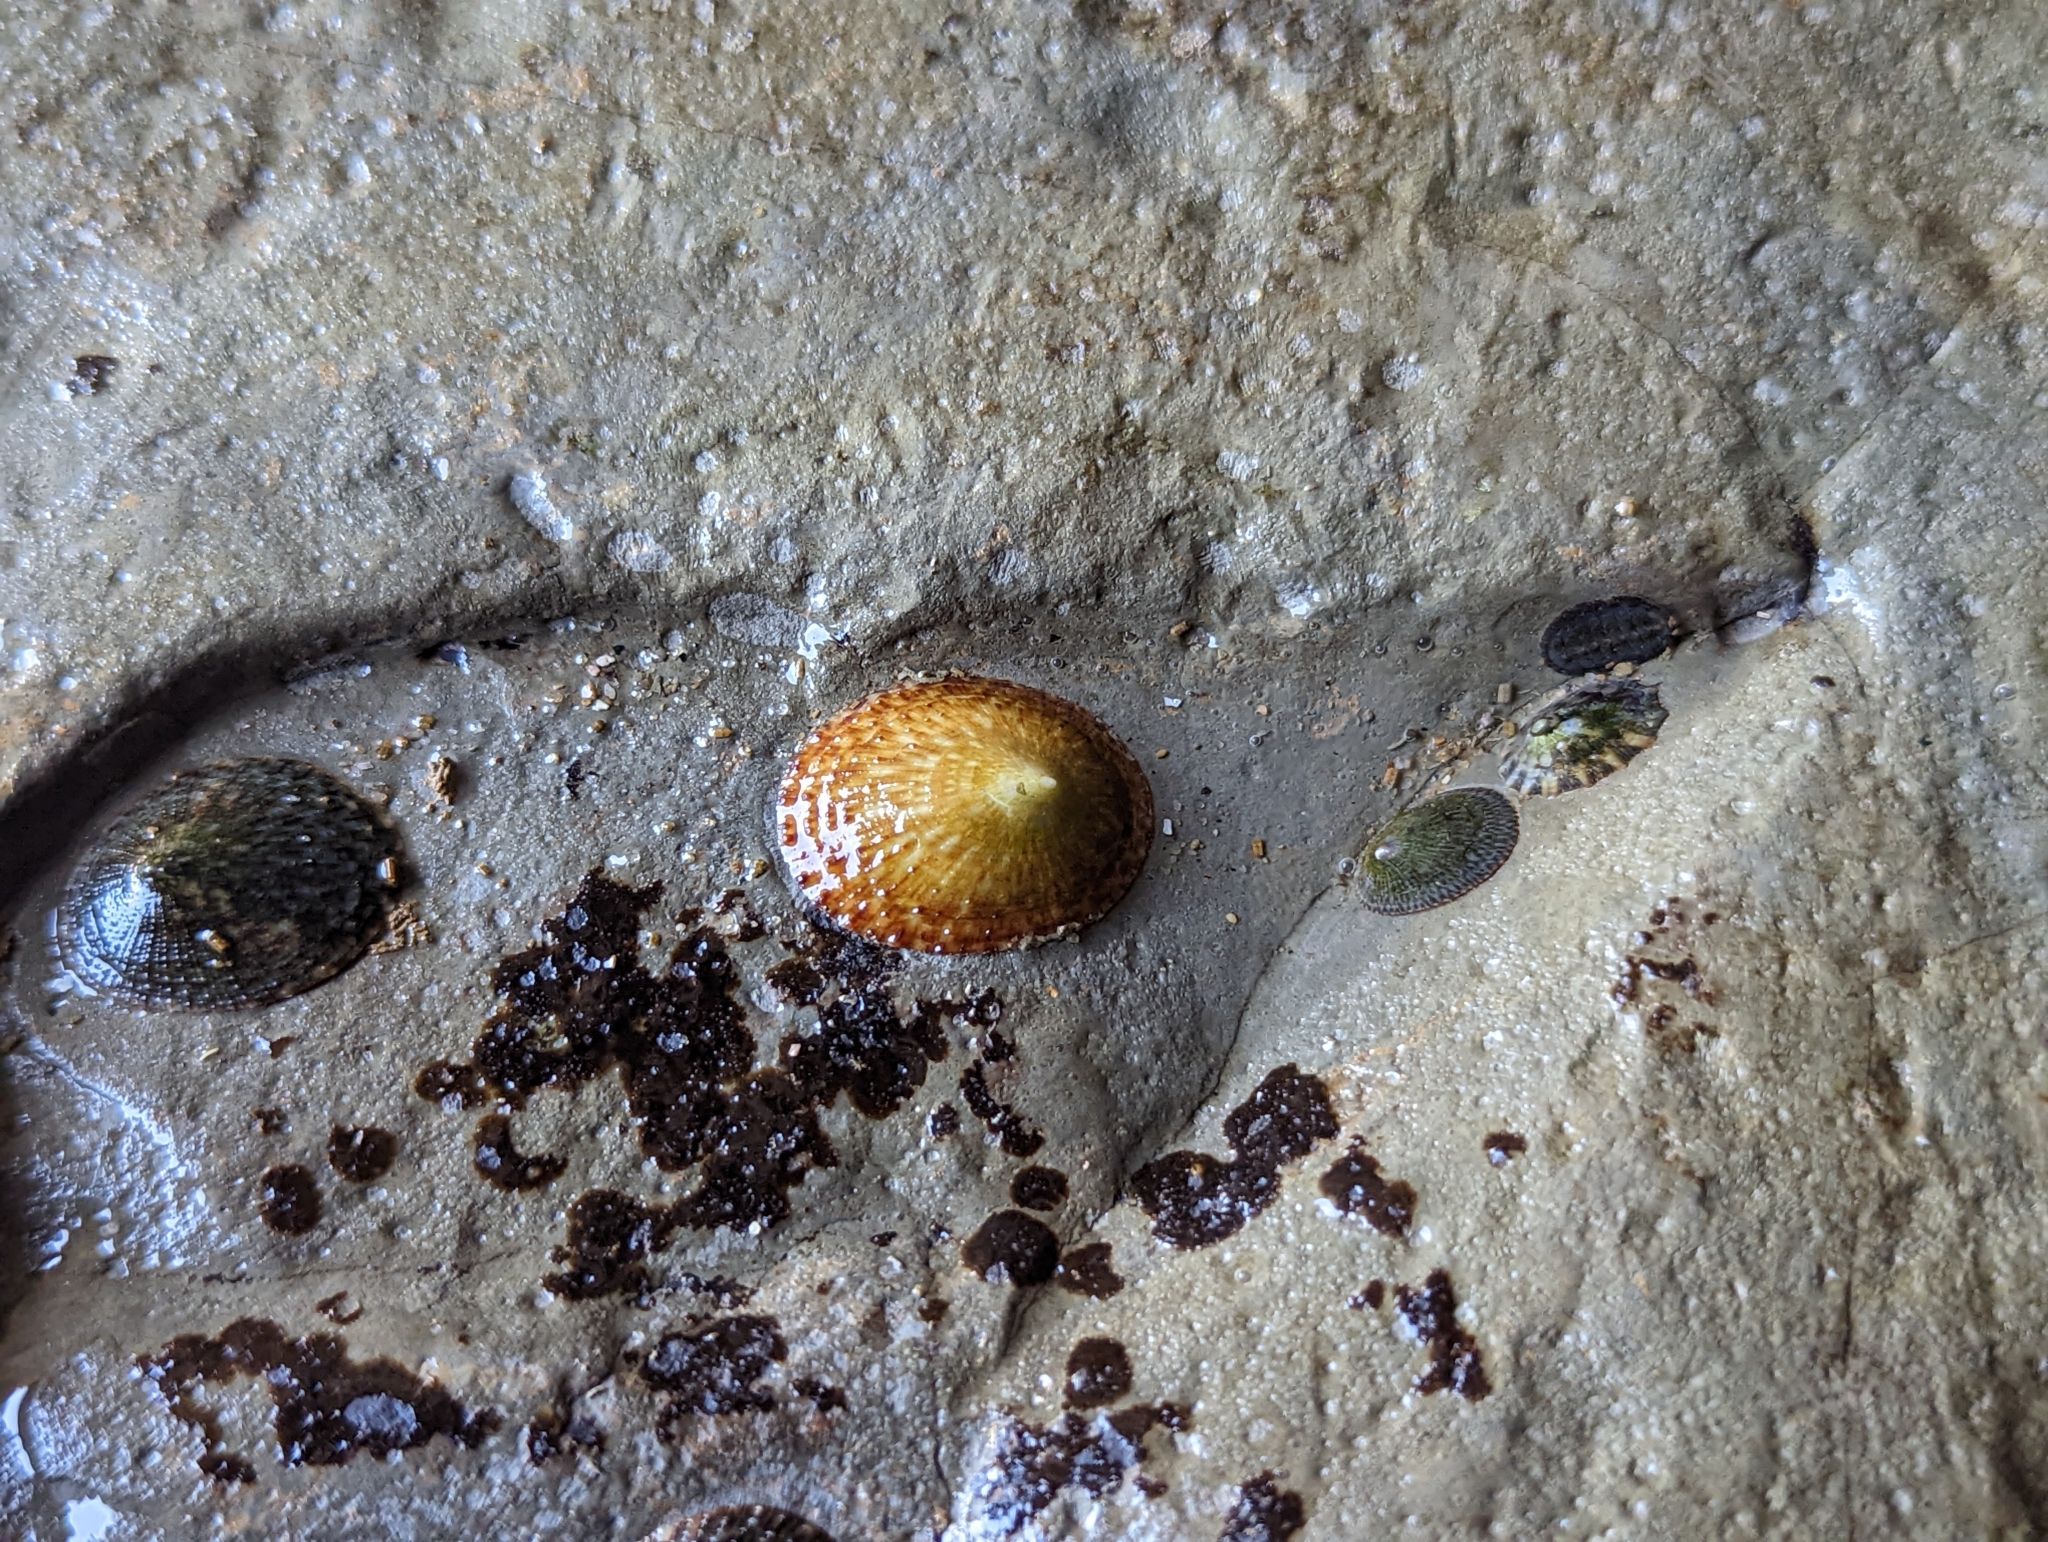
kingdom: Animalia
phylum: Mollusca
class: Gastropoda
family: Lottiidae
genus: Lottia
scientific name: Lottia limatula
